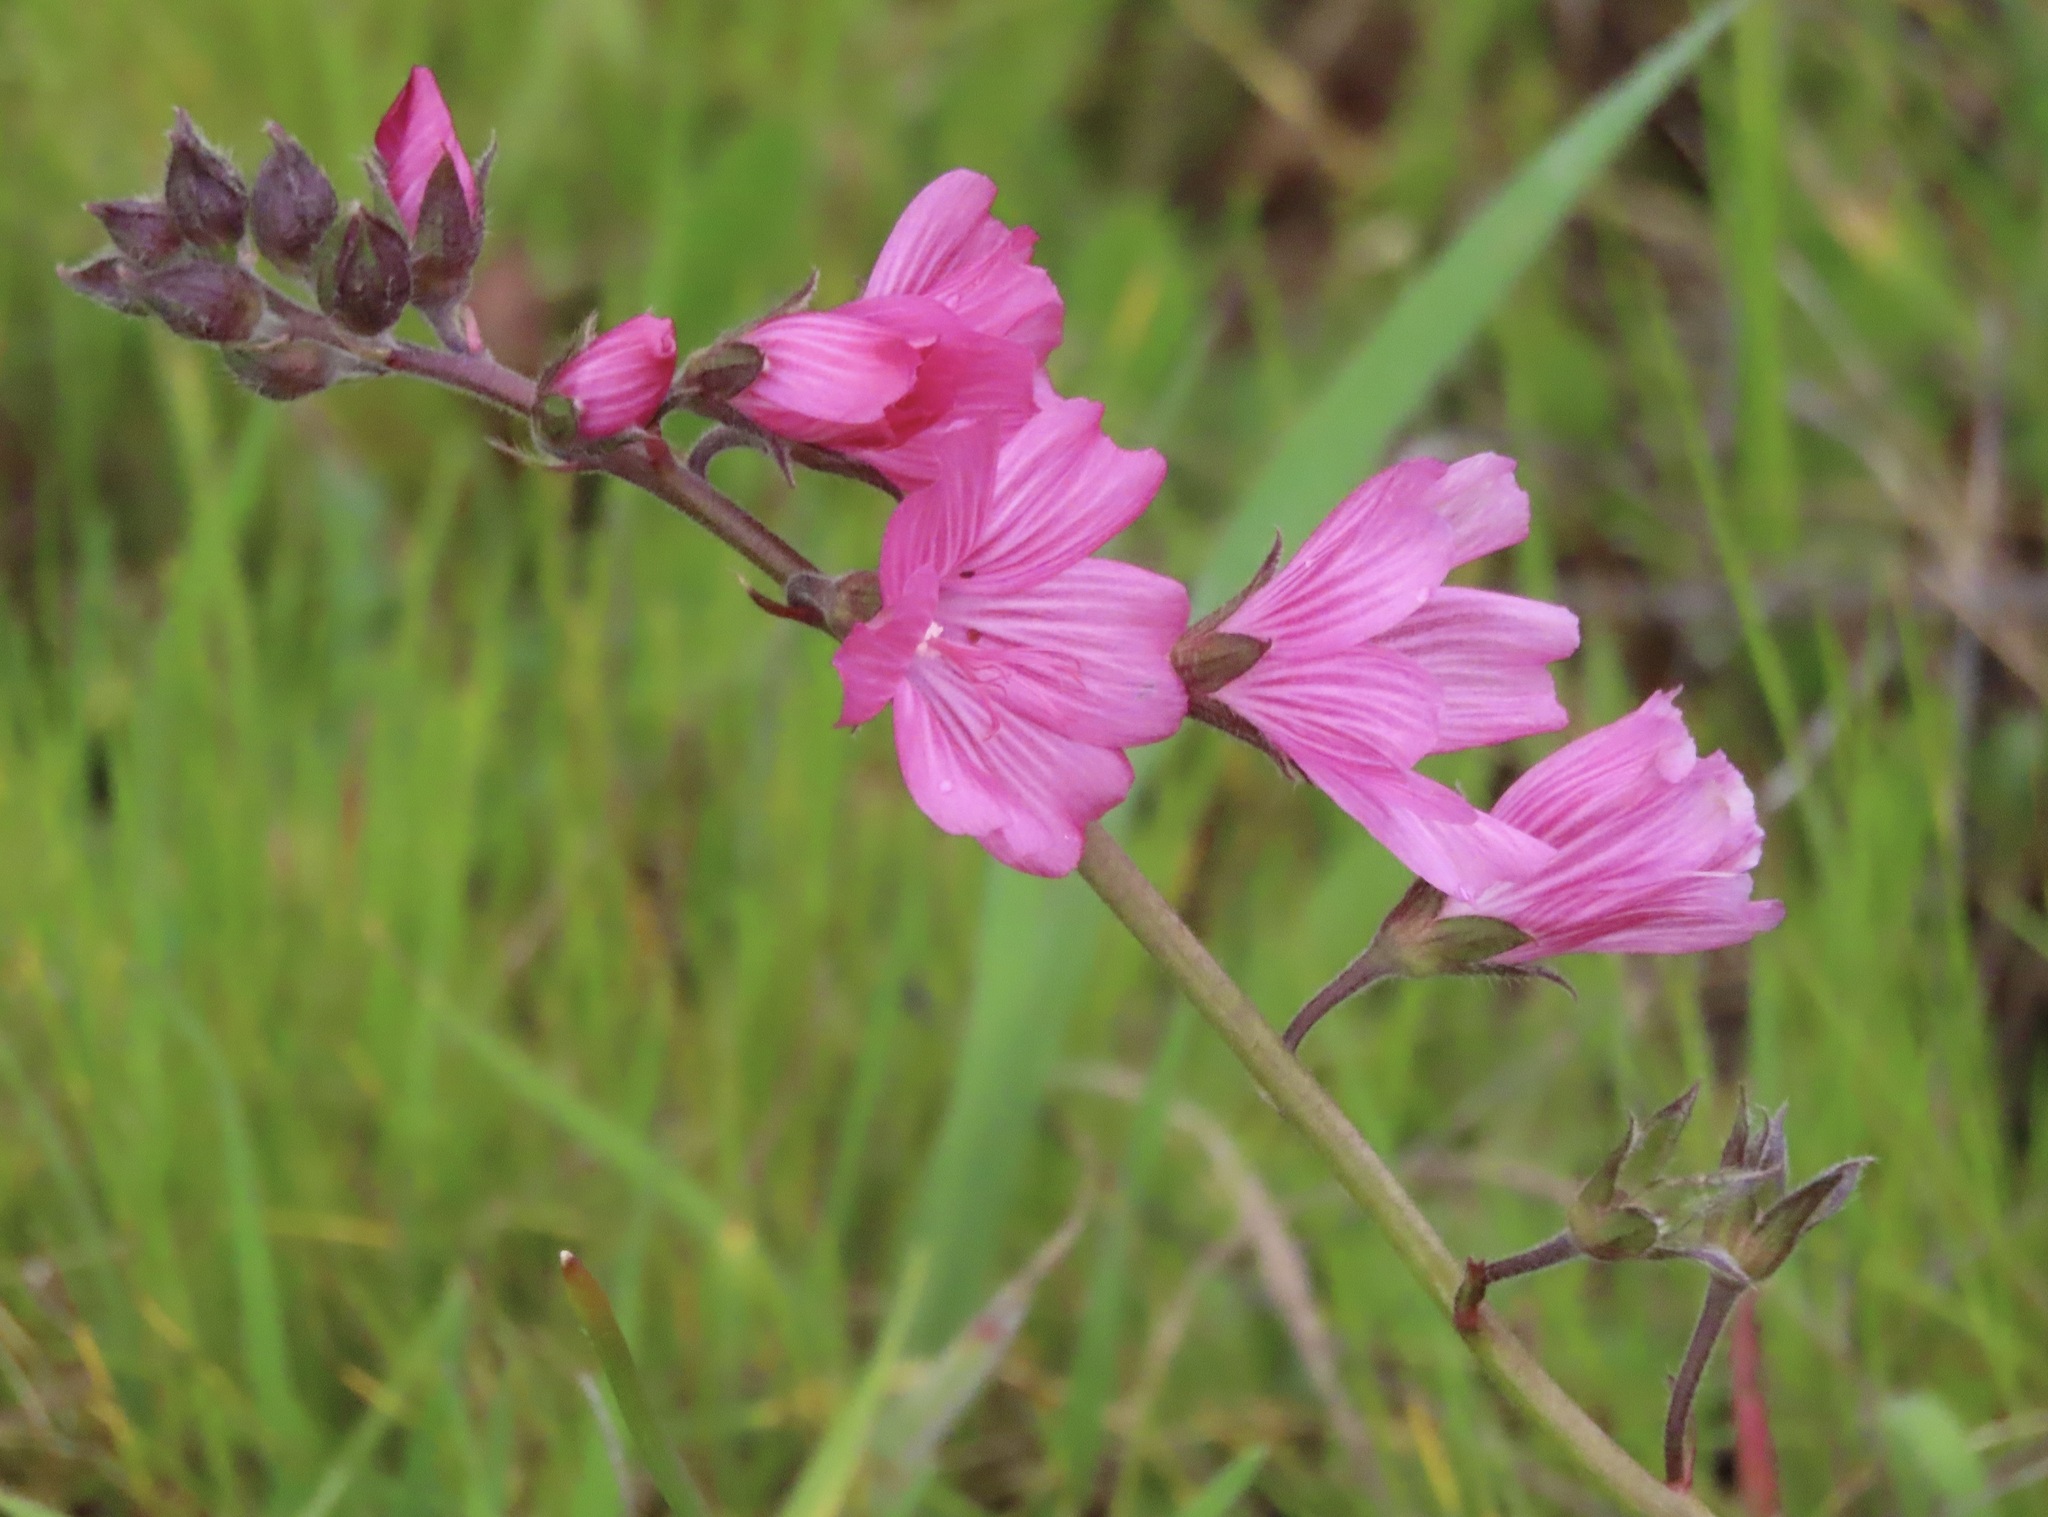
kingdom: Plantae
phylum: Tracheophyta
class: Magnoliopsida
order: Malvales
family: Malvaceae
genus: Sidalcea
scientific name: Sidalcea malviflora
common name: Greek mallow
